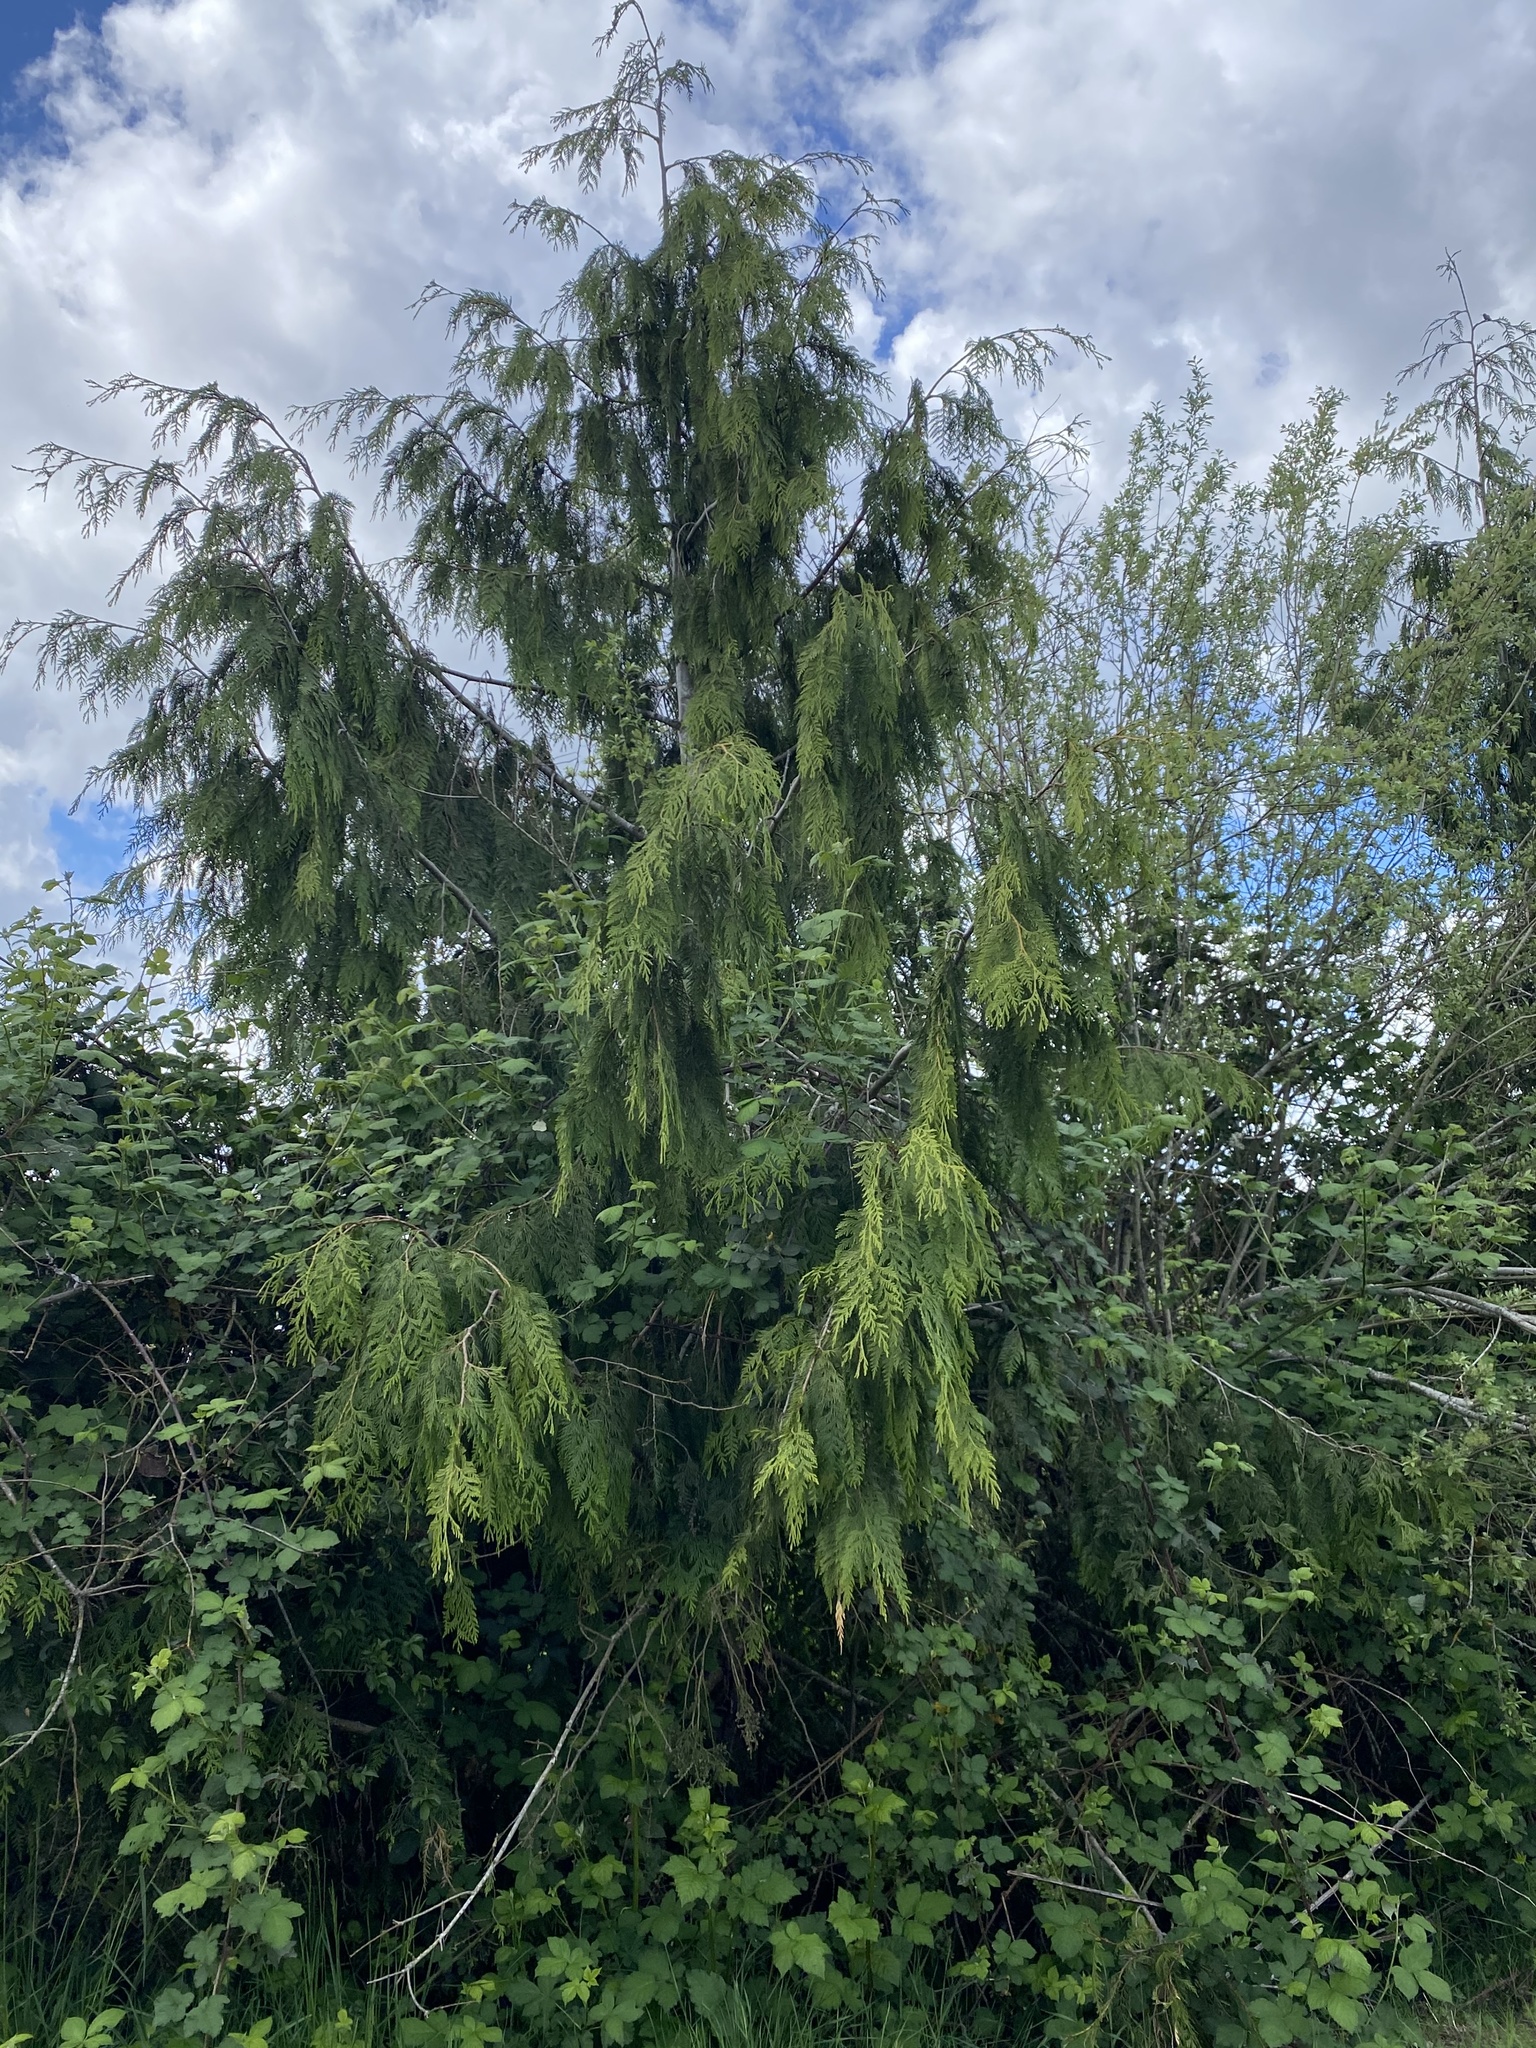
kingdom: Plantae
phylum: Tracheophyta
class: Pinopsida
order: Pinales
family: Cupressaceae
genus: Thuja
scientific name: Thuja plicata
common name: Western red-cedar
